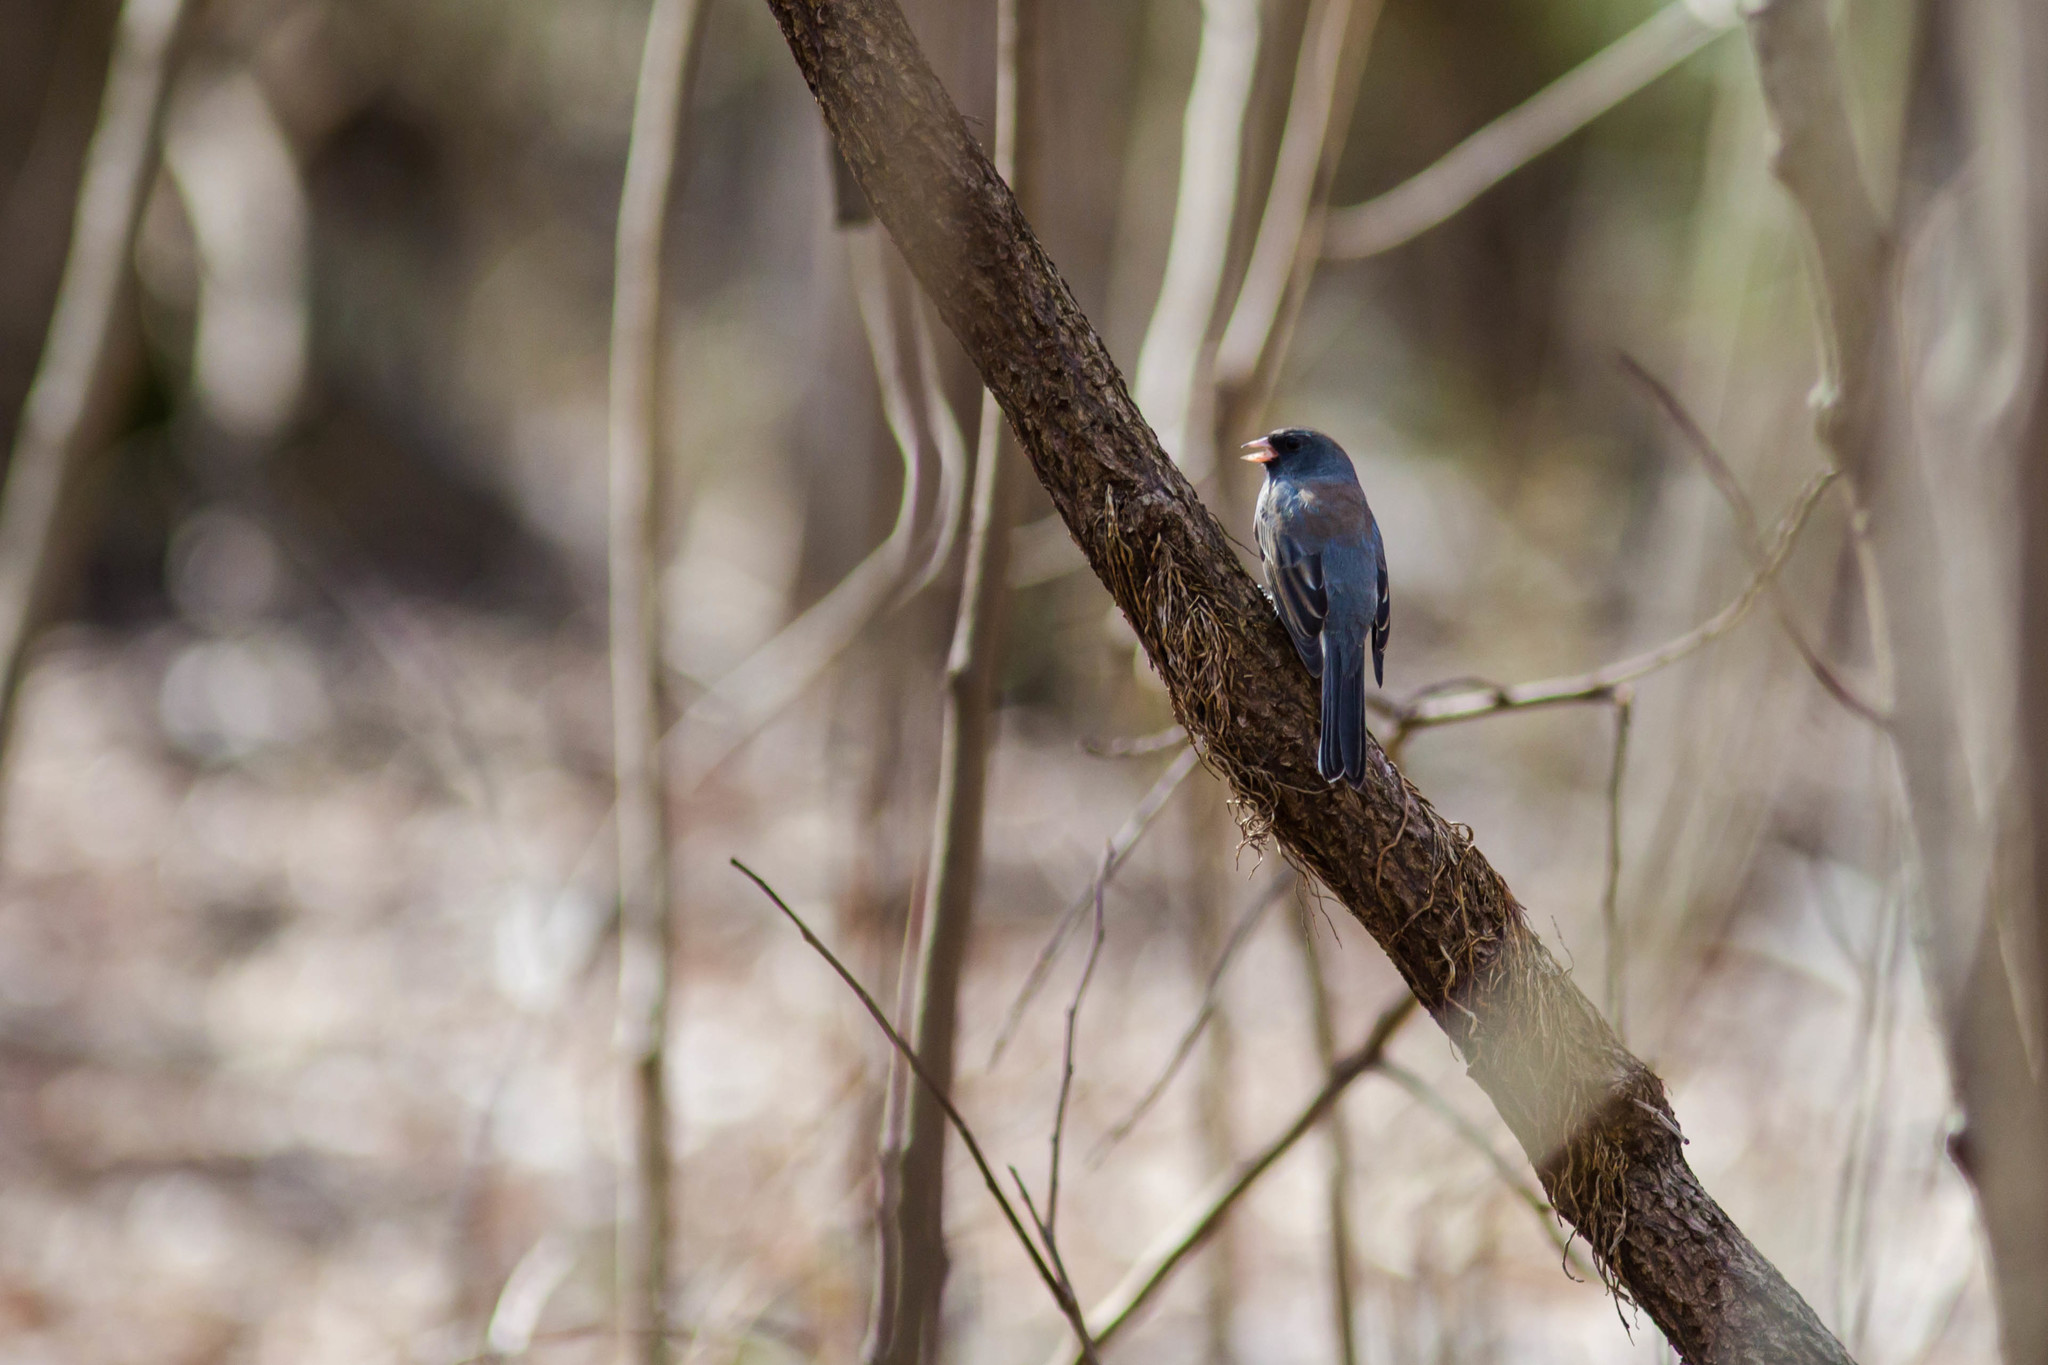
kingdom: Animalia
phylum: Chordata
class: Aves
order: Passeriformes
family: Passerellidae
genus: Junco
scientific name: Junco hyemalis
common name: Dark-eyed junco
